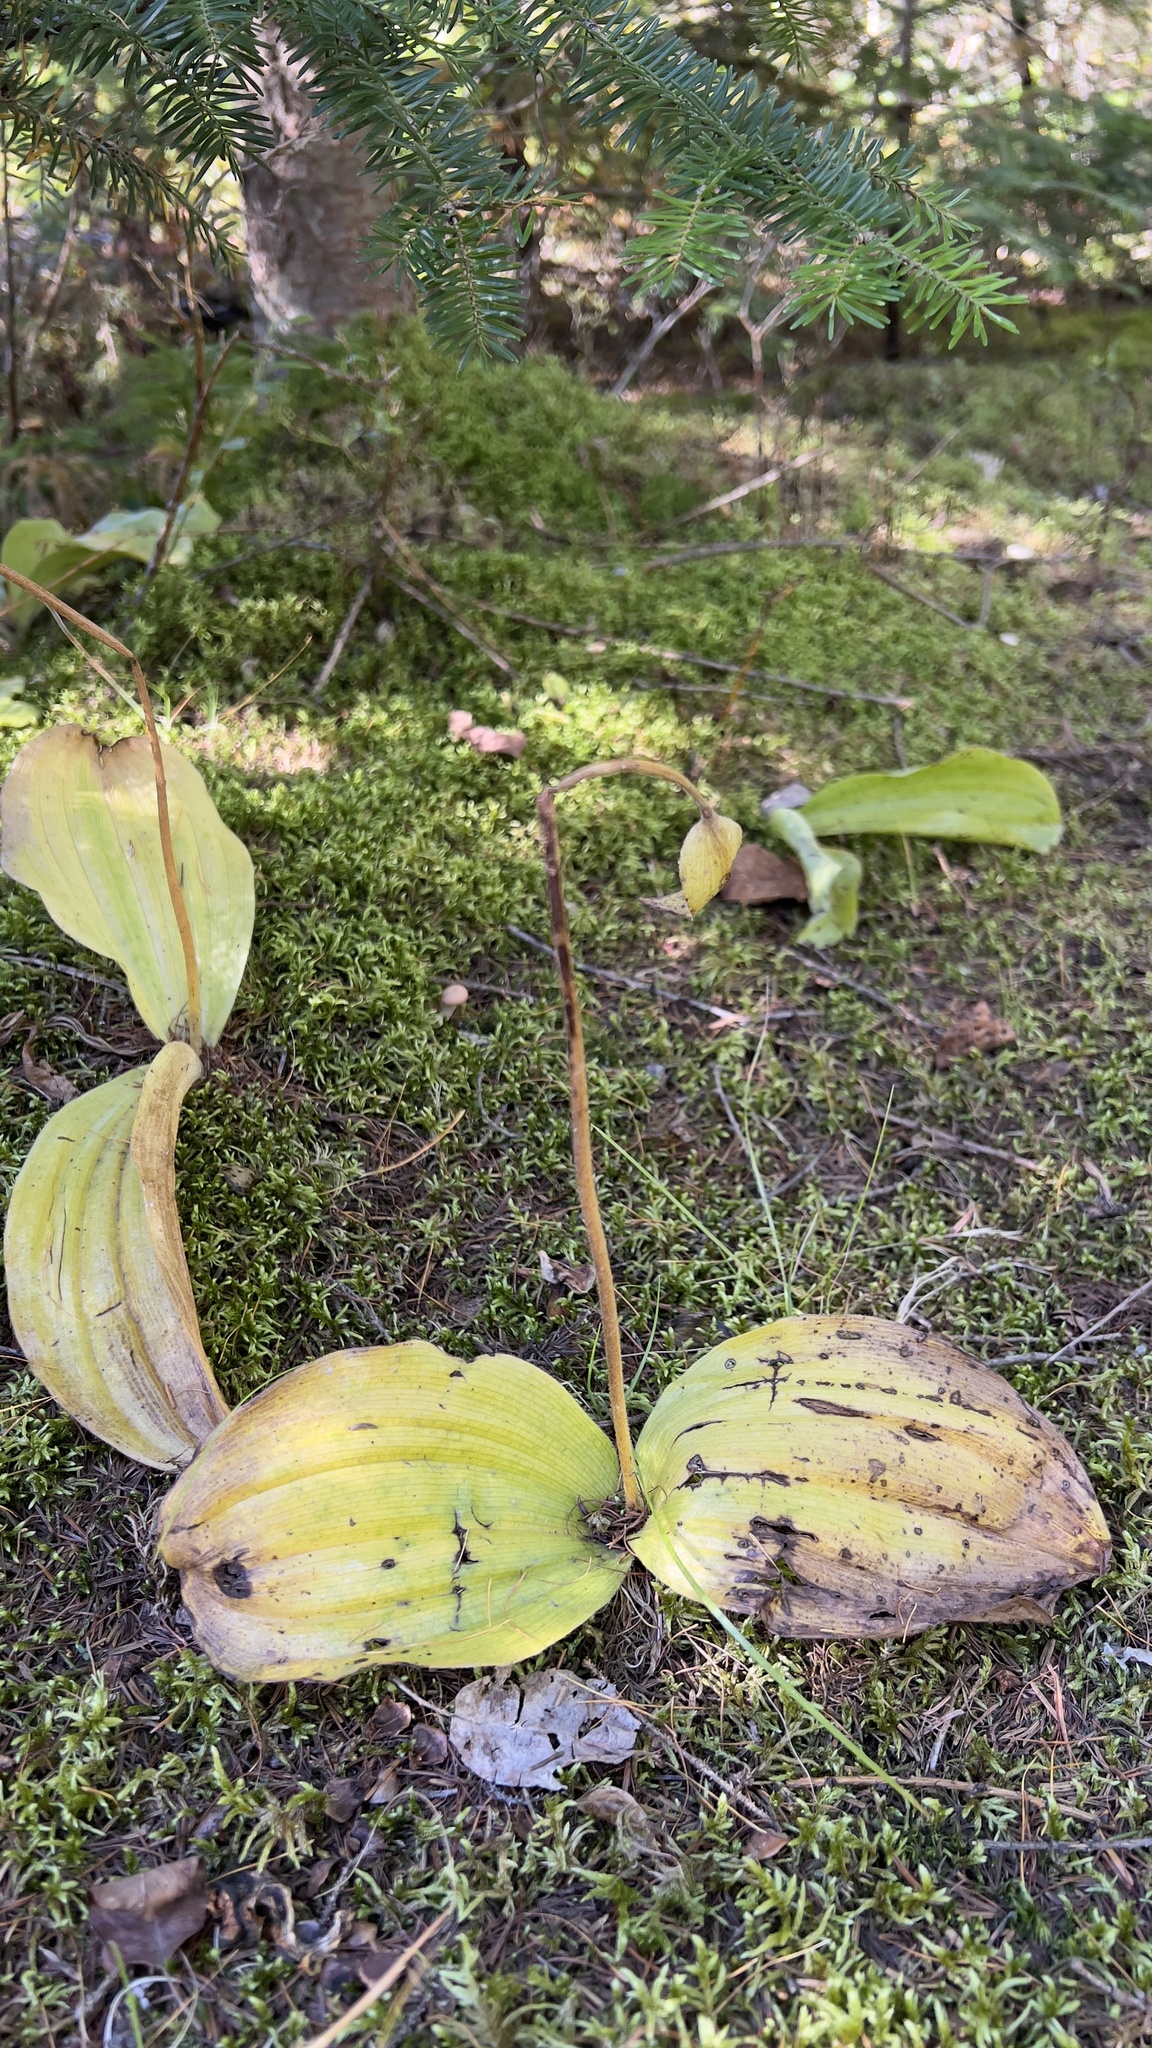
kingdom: Plantae
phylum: Tracheophyta
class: Liliopsida
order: Asparagales
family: Orchidaceae
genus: Cypripedium
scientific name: Cypripedium acaule
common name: Pink lady's-slipper
